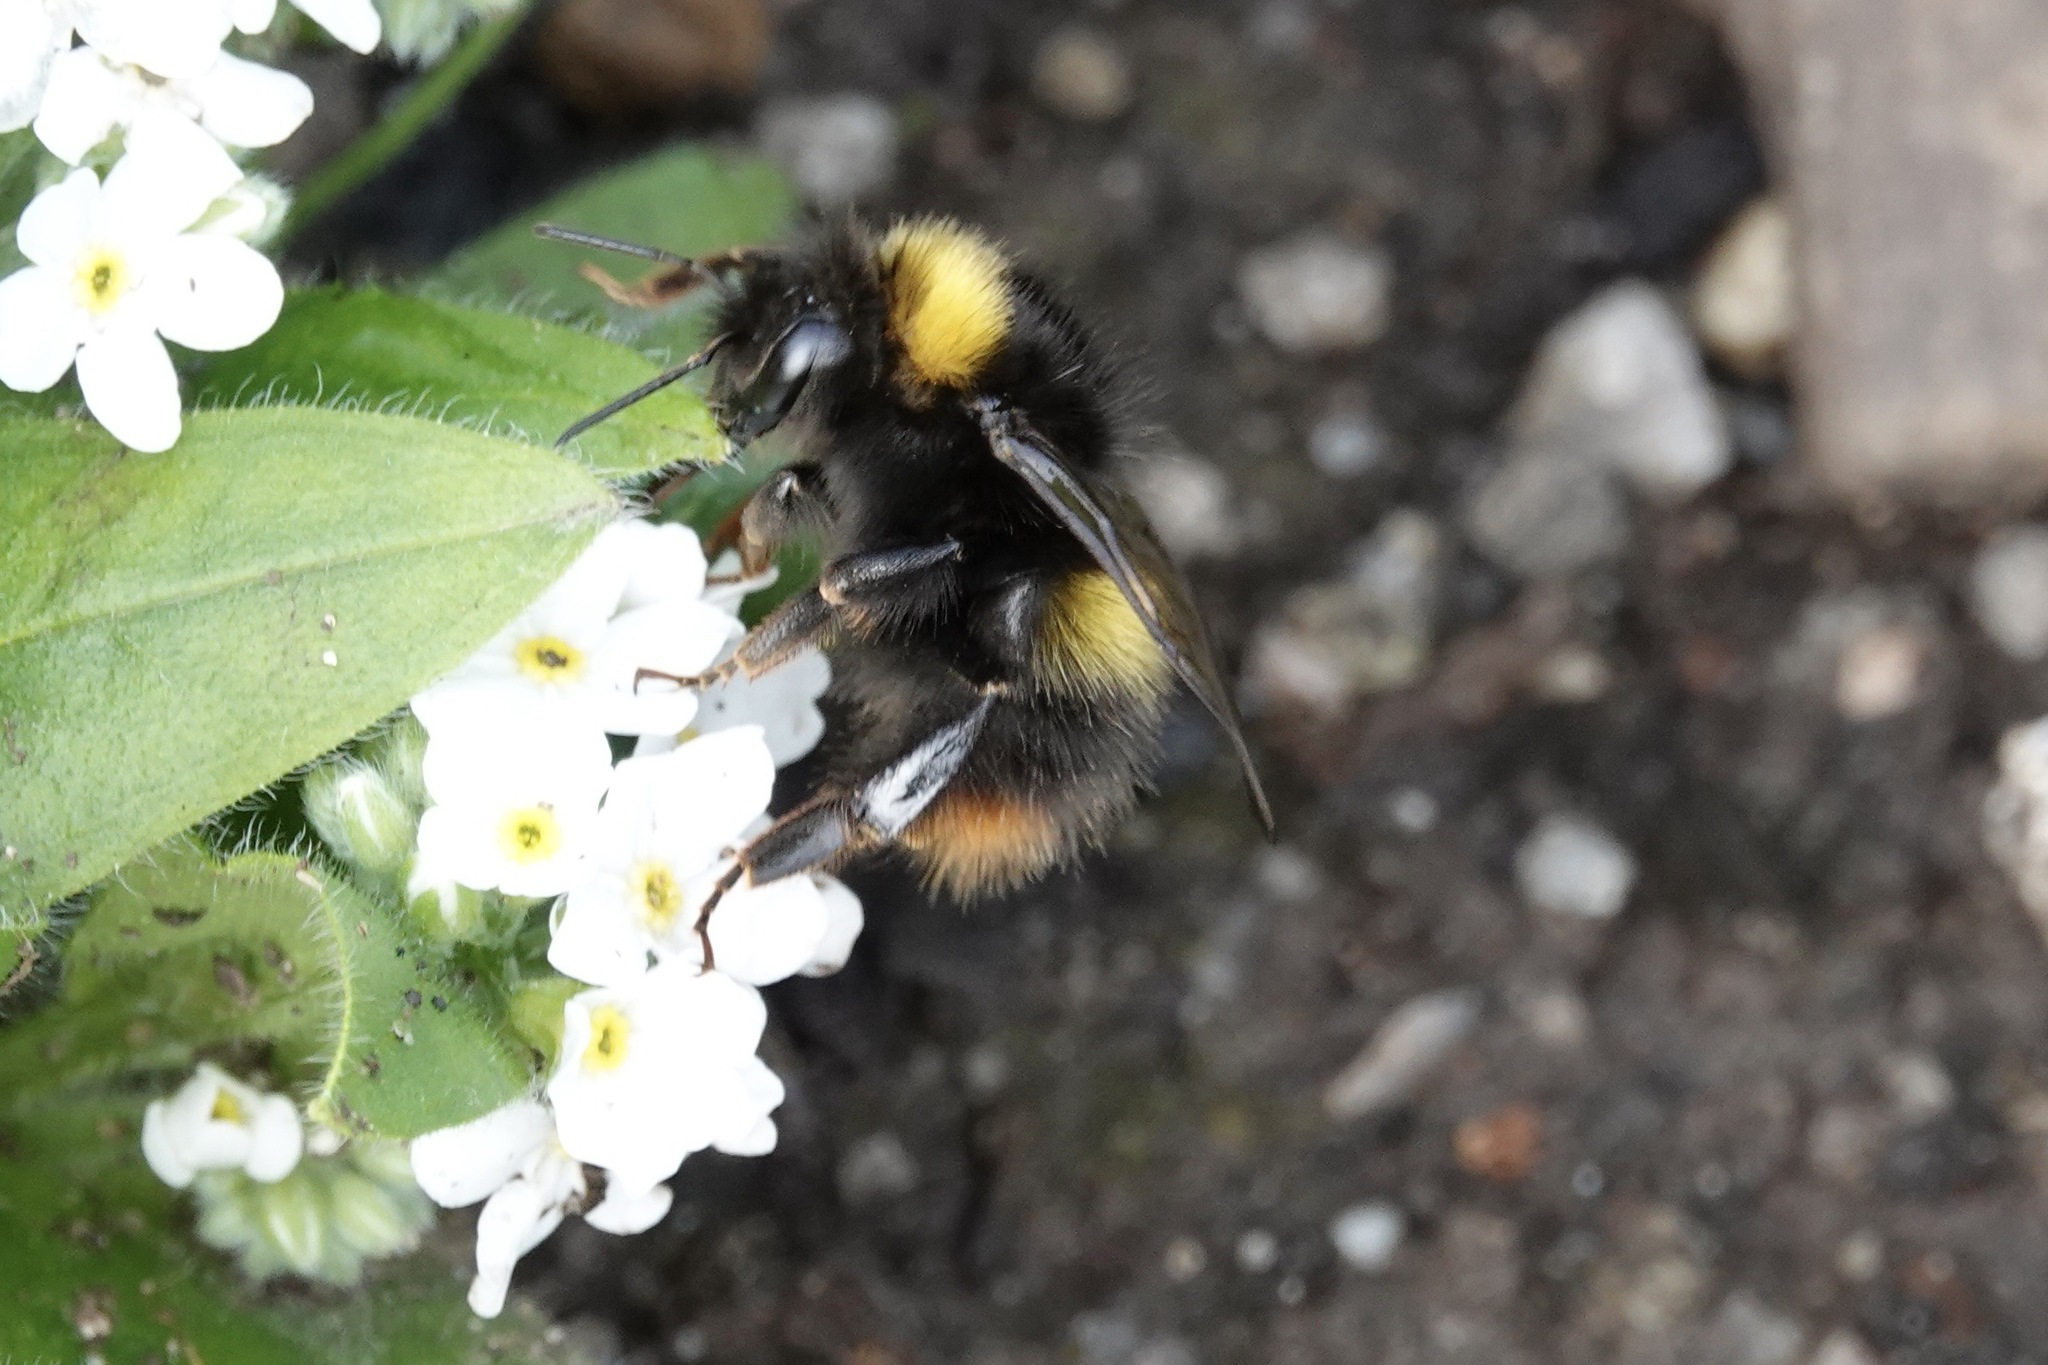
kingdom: Animalia
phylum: Arthropoda
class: Insecta
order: Hymenoptera
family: Apidae
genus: Bombus
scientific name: Bombus pratorum
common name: Early humble-bee
